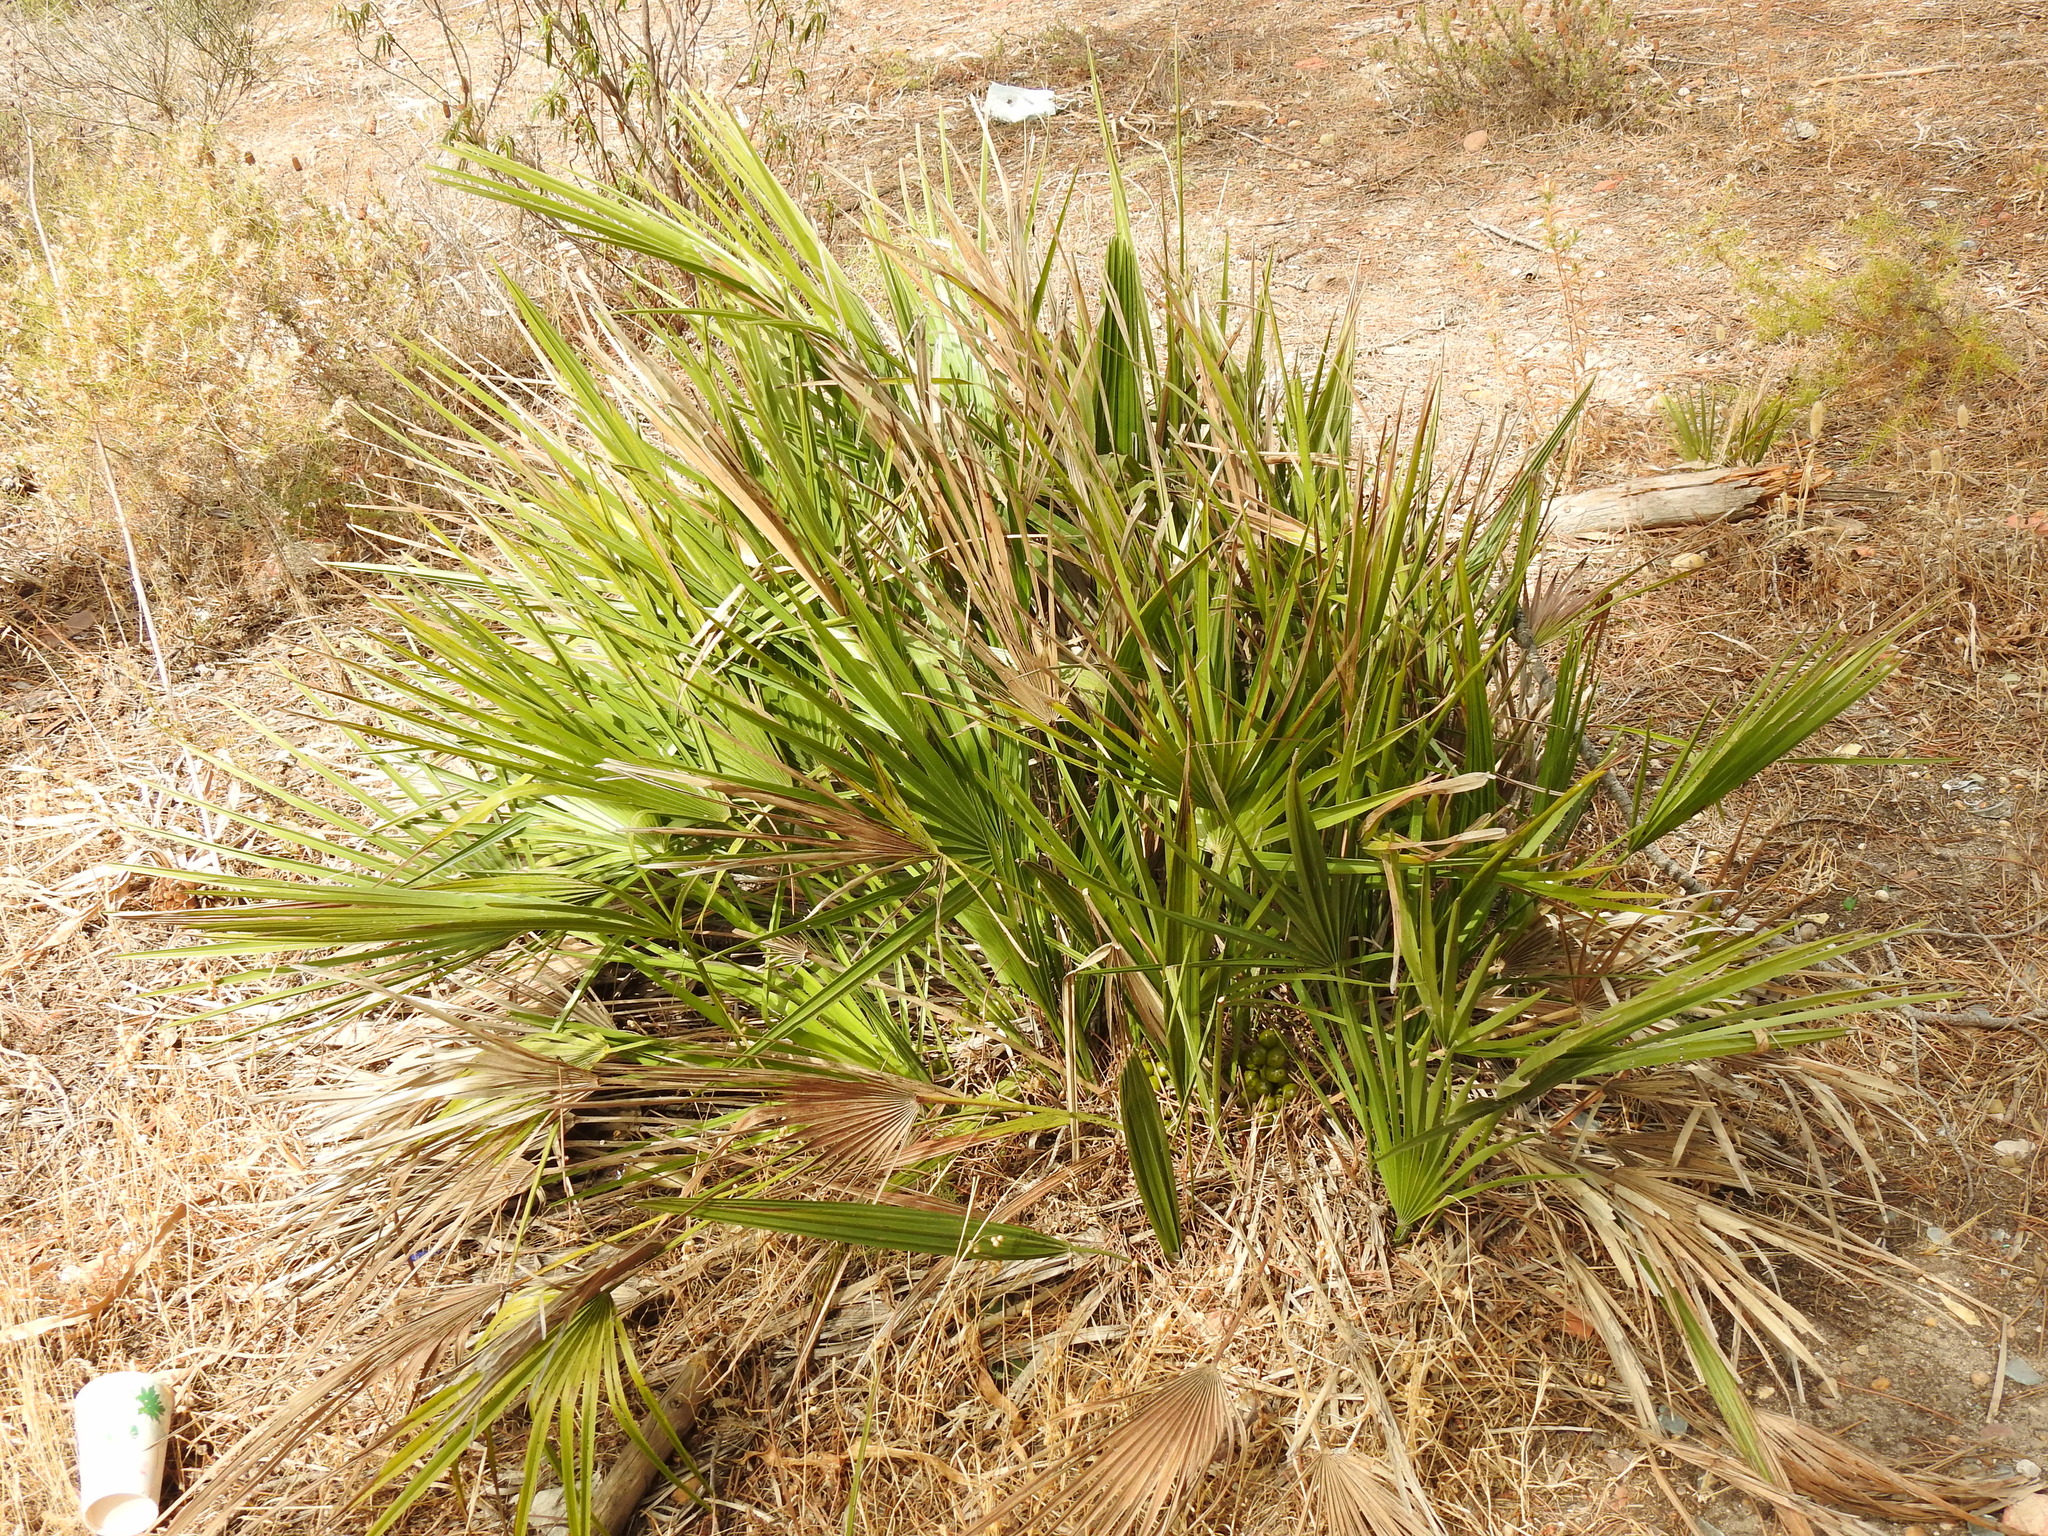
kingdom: Plantae
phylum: Tracheophyta
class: Liliopsida
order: Arecales
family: Arecaceae
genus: Chamaerops
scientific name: Chamaerops humilis
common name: Dwarf fan palm
